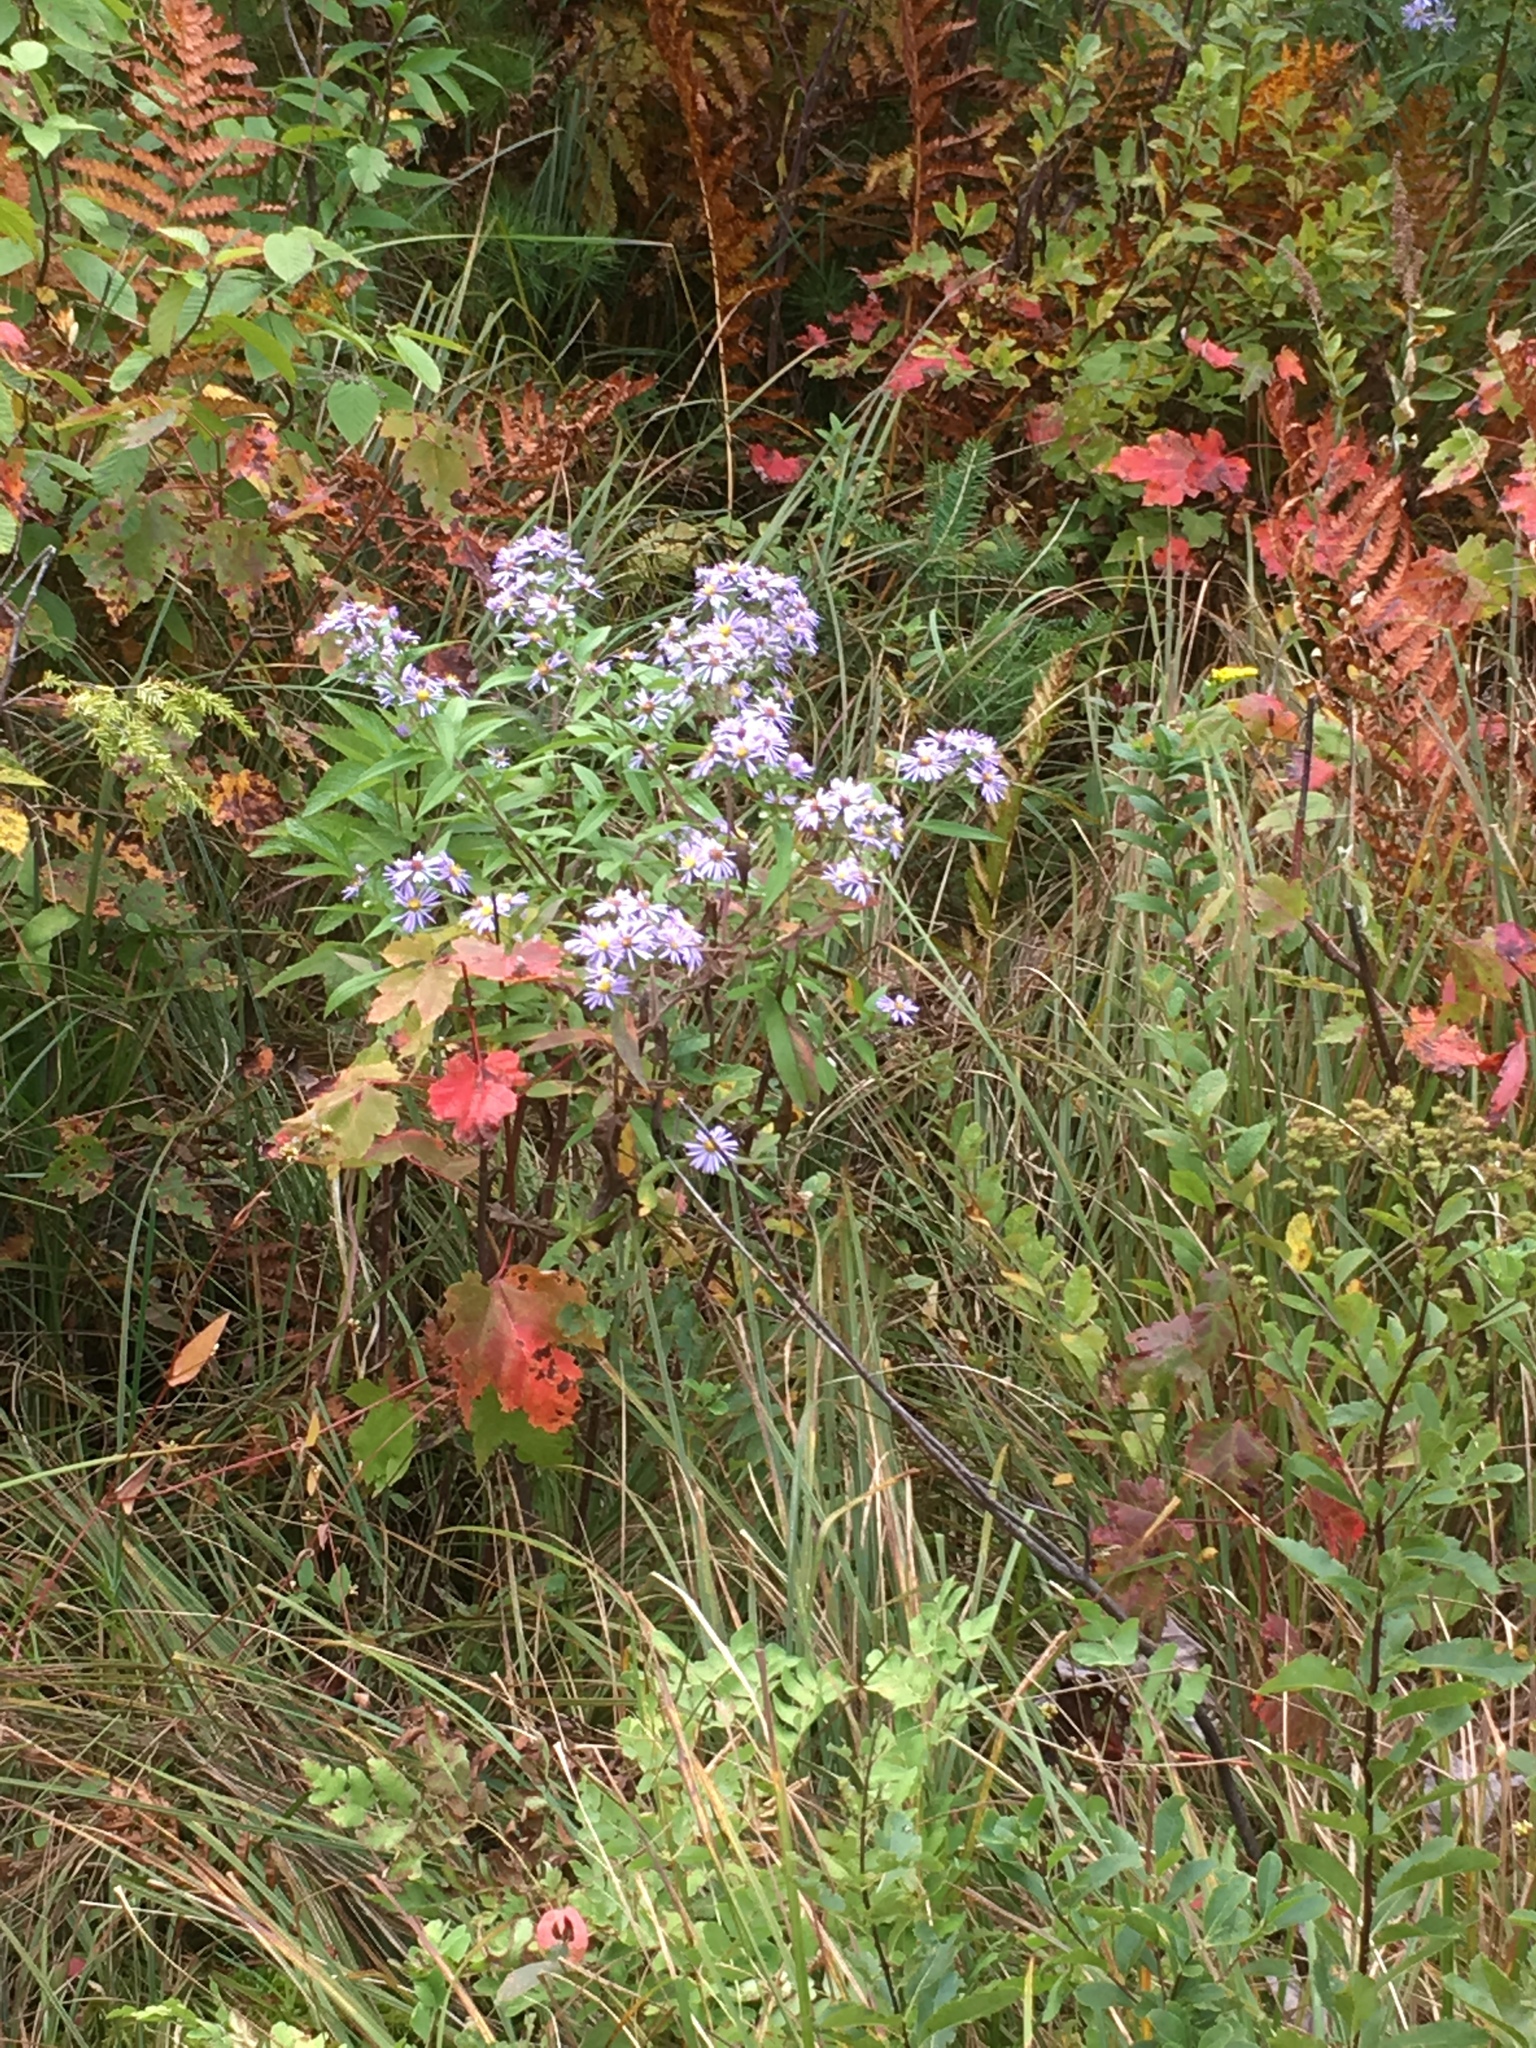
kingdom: Plantae
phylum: Tracheophyta
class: Magnoliopsida
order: Asterales
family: Asteraceae
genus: Symphyotrichum
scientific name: Symphyotrichum puniceum
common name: Bog aster
